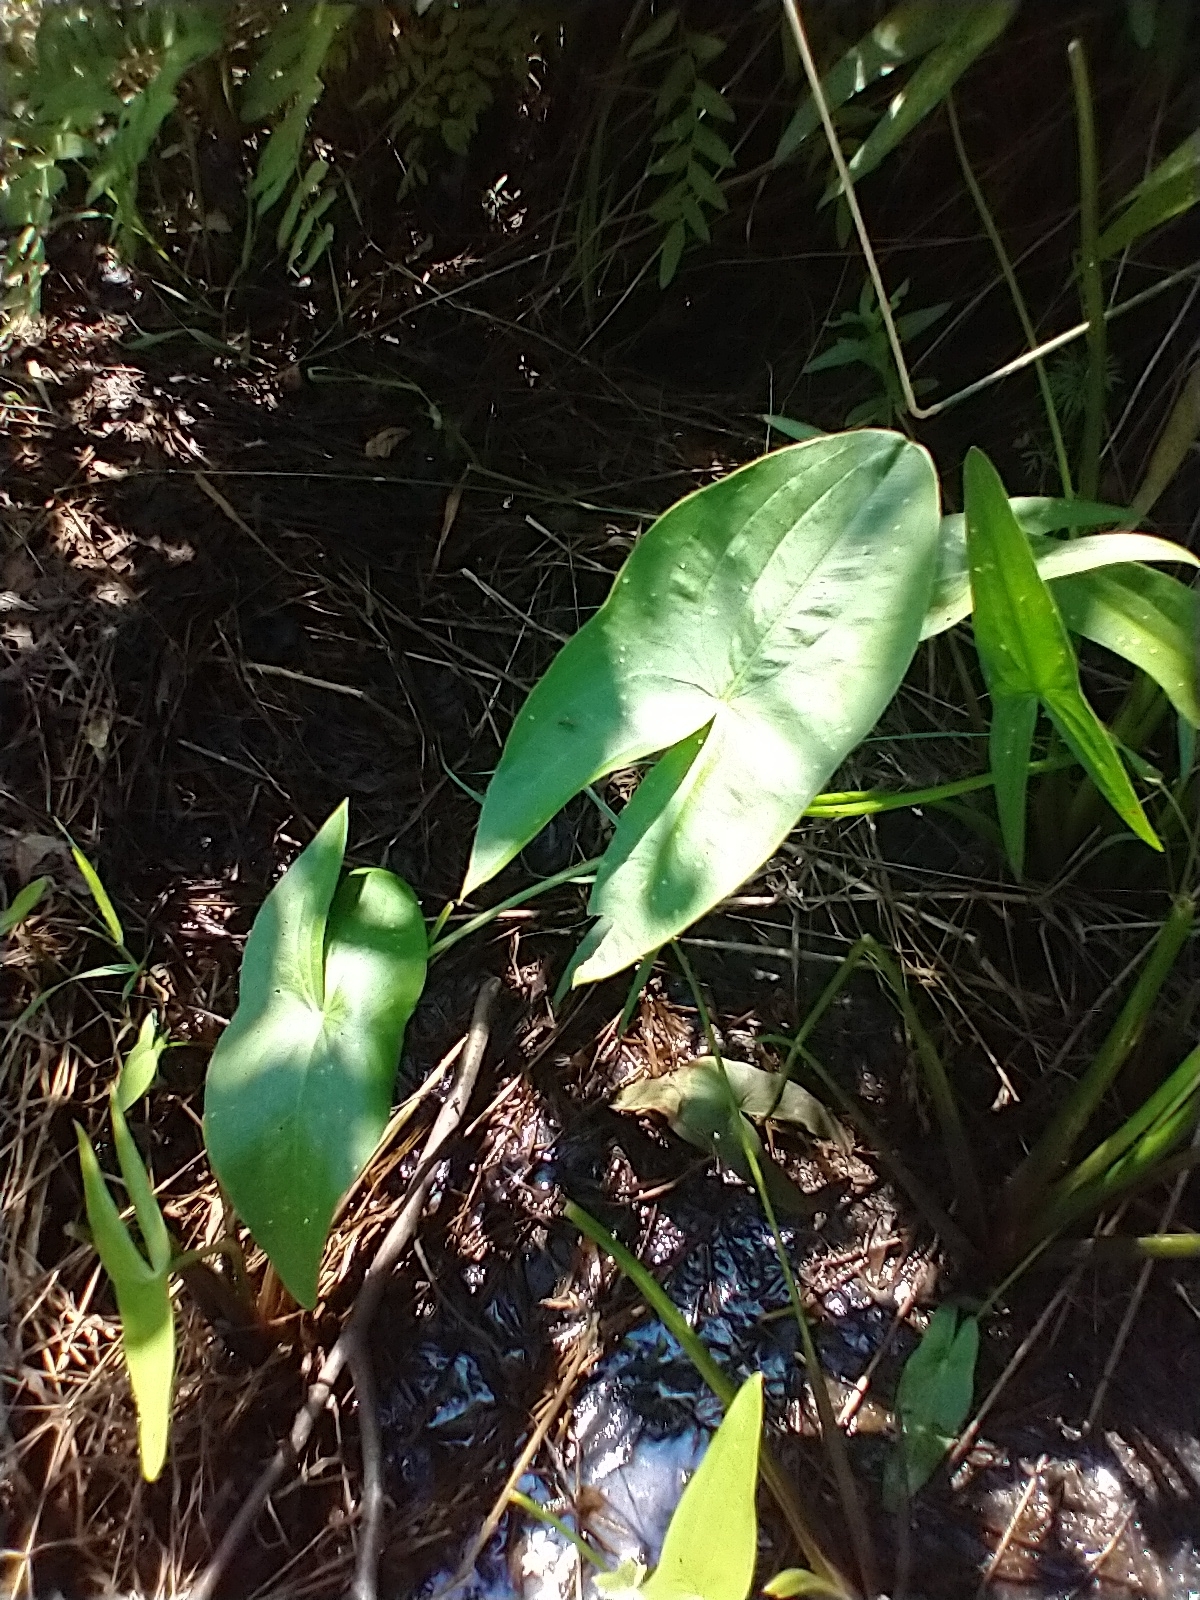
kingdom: Plantae
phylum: Tracheophyta
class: Liliopsida
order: Alismatales
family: Alismataceae
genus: Sagittaria
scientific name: Sagittaria latifolia
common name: Duck-potato
